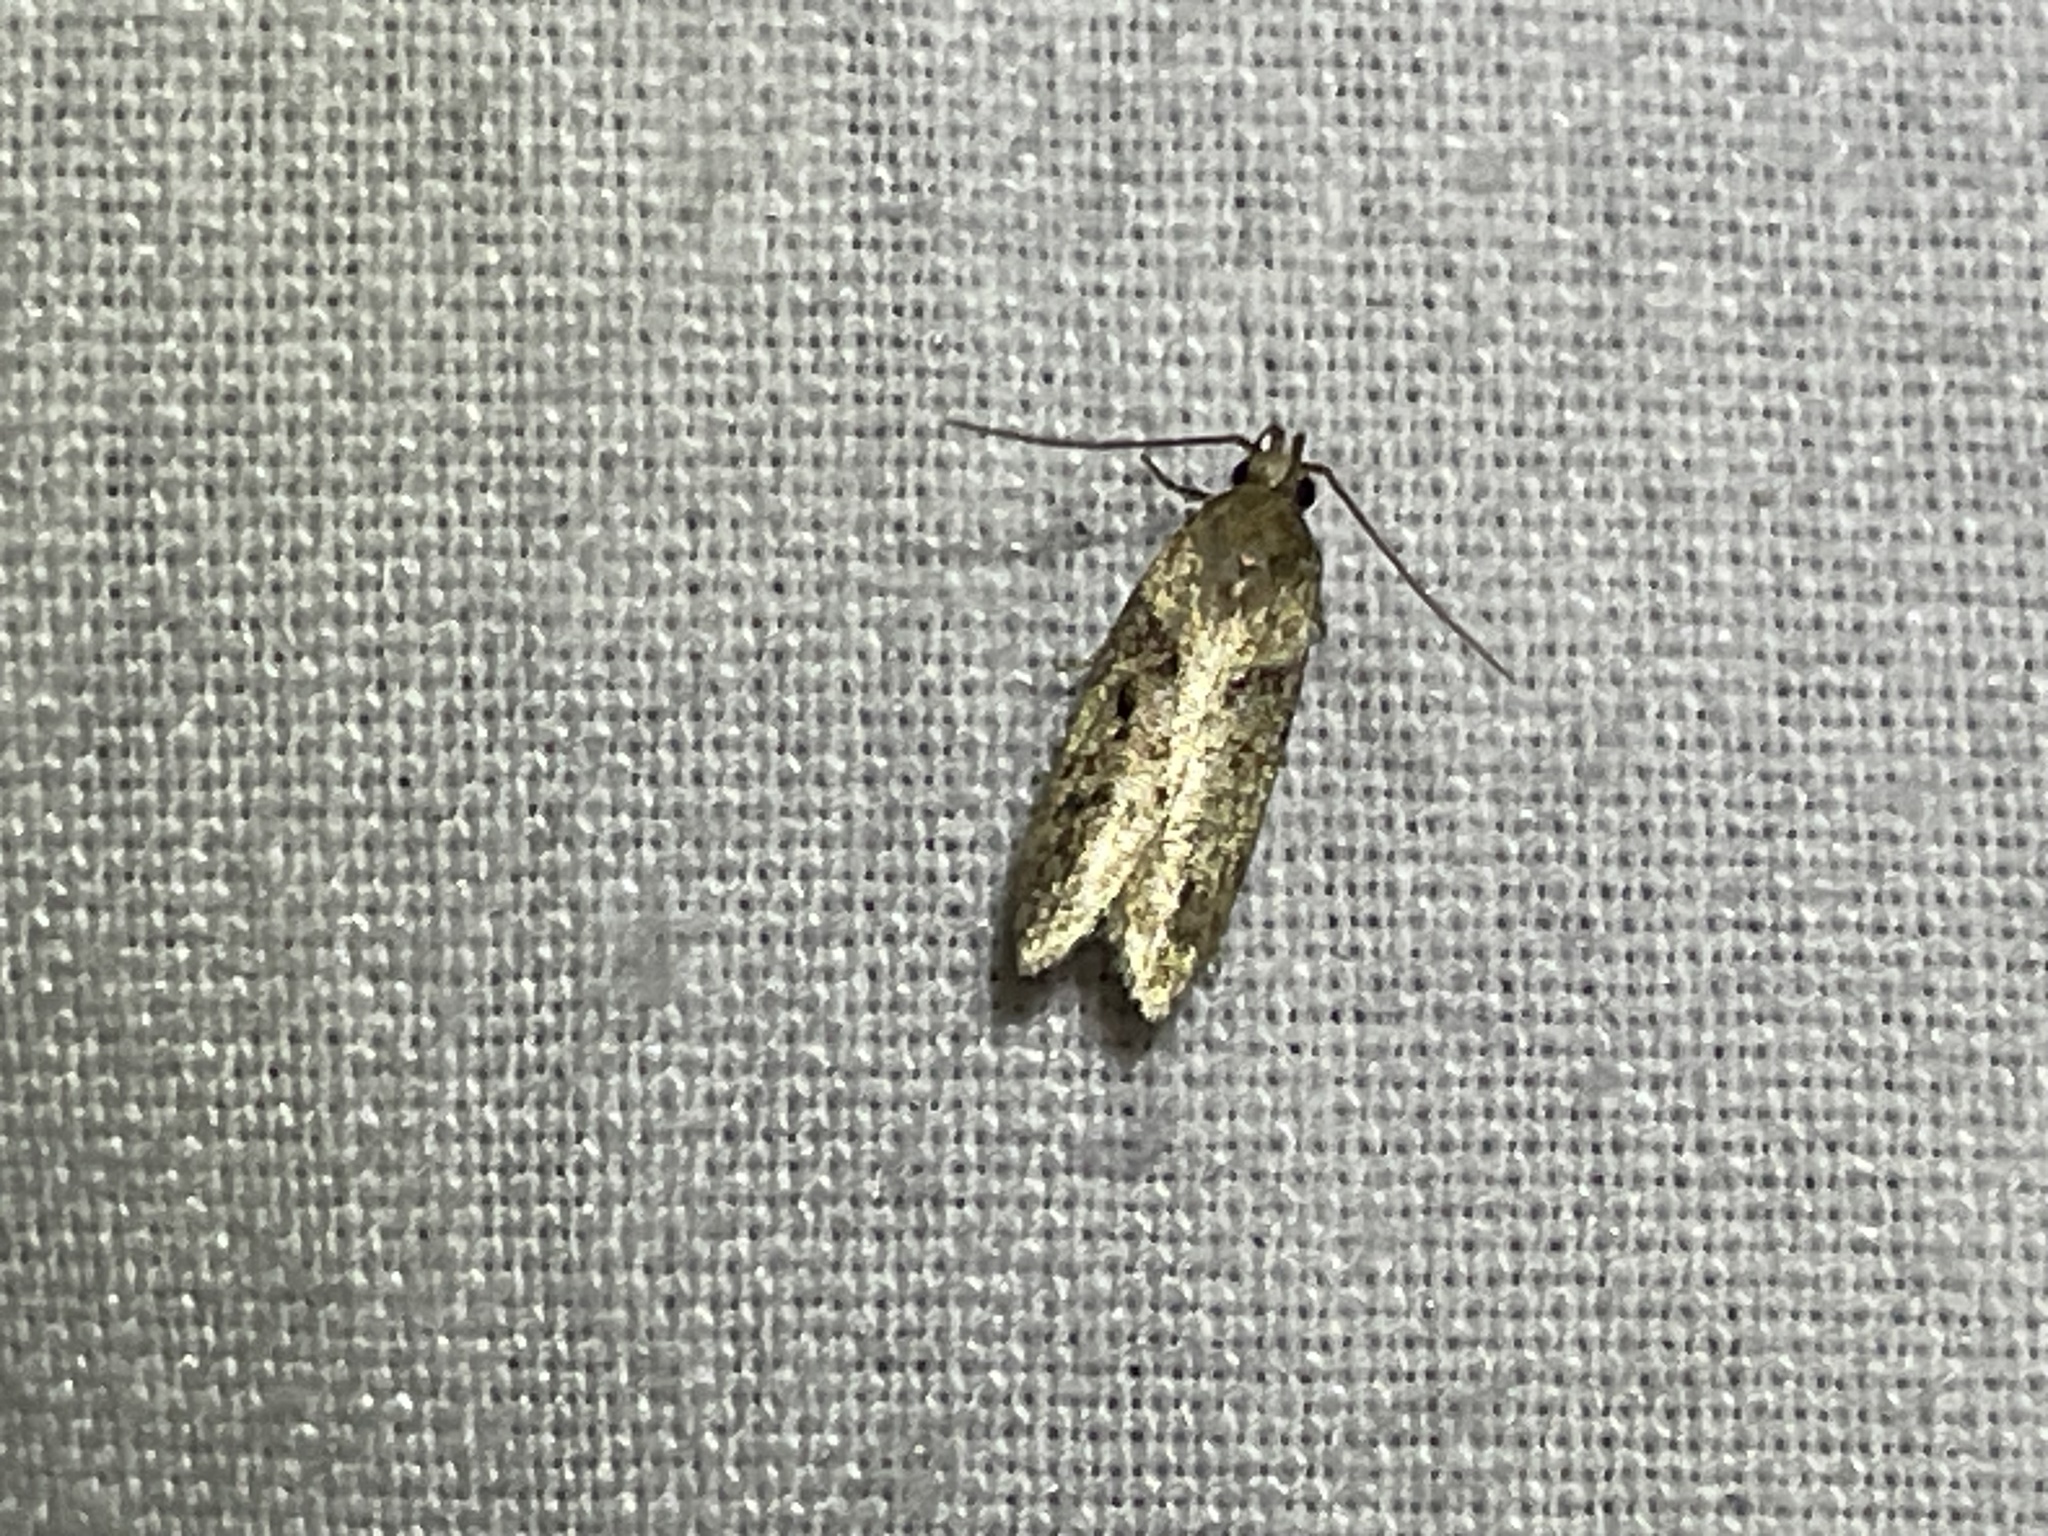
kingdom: Animalia
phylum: Arthropoda
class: Insecta
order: Lepidoptera
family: Gelechiidae
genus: Chionodes
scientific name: Chionodes mediofuscella
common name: Black-smudged chionodes moth
